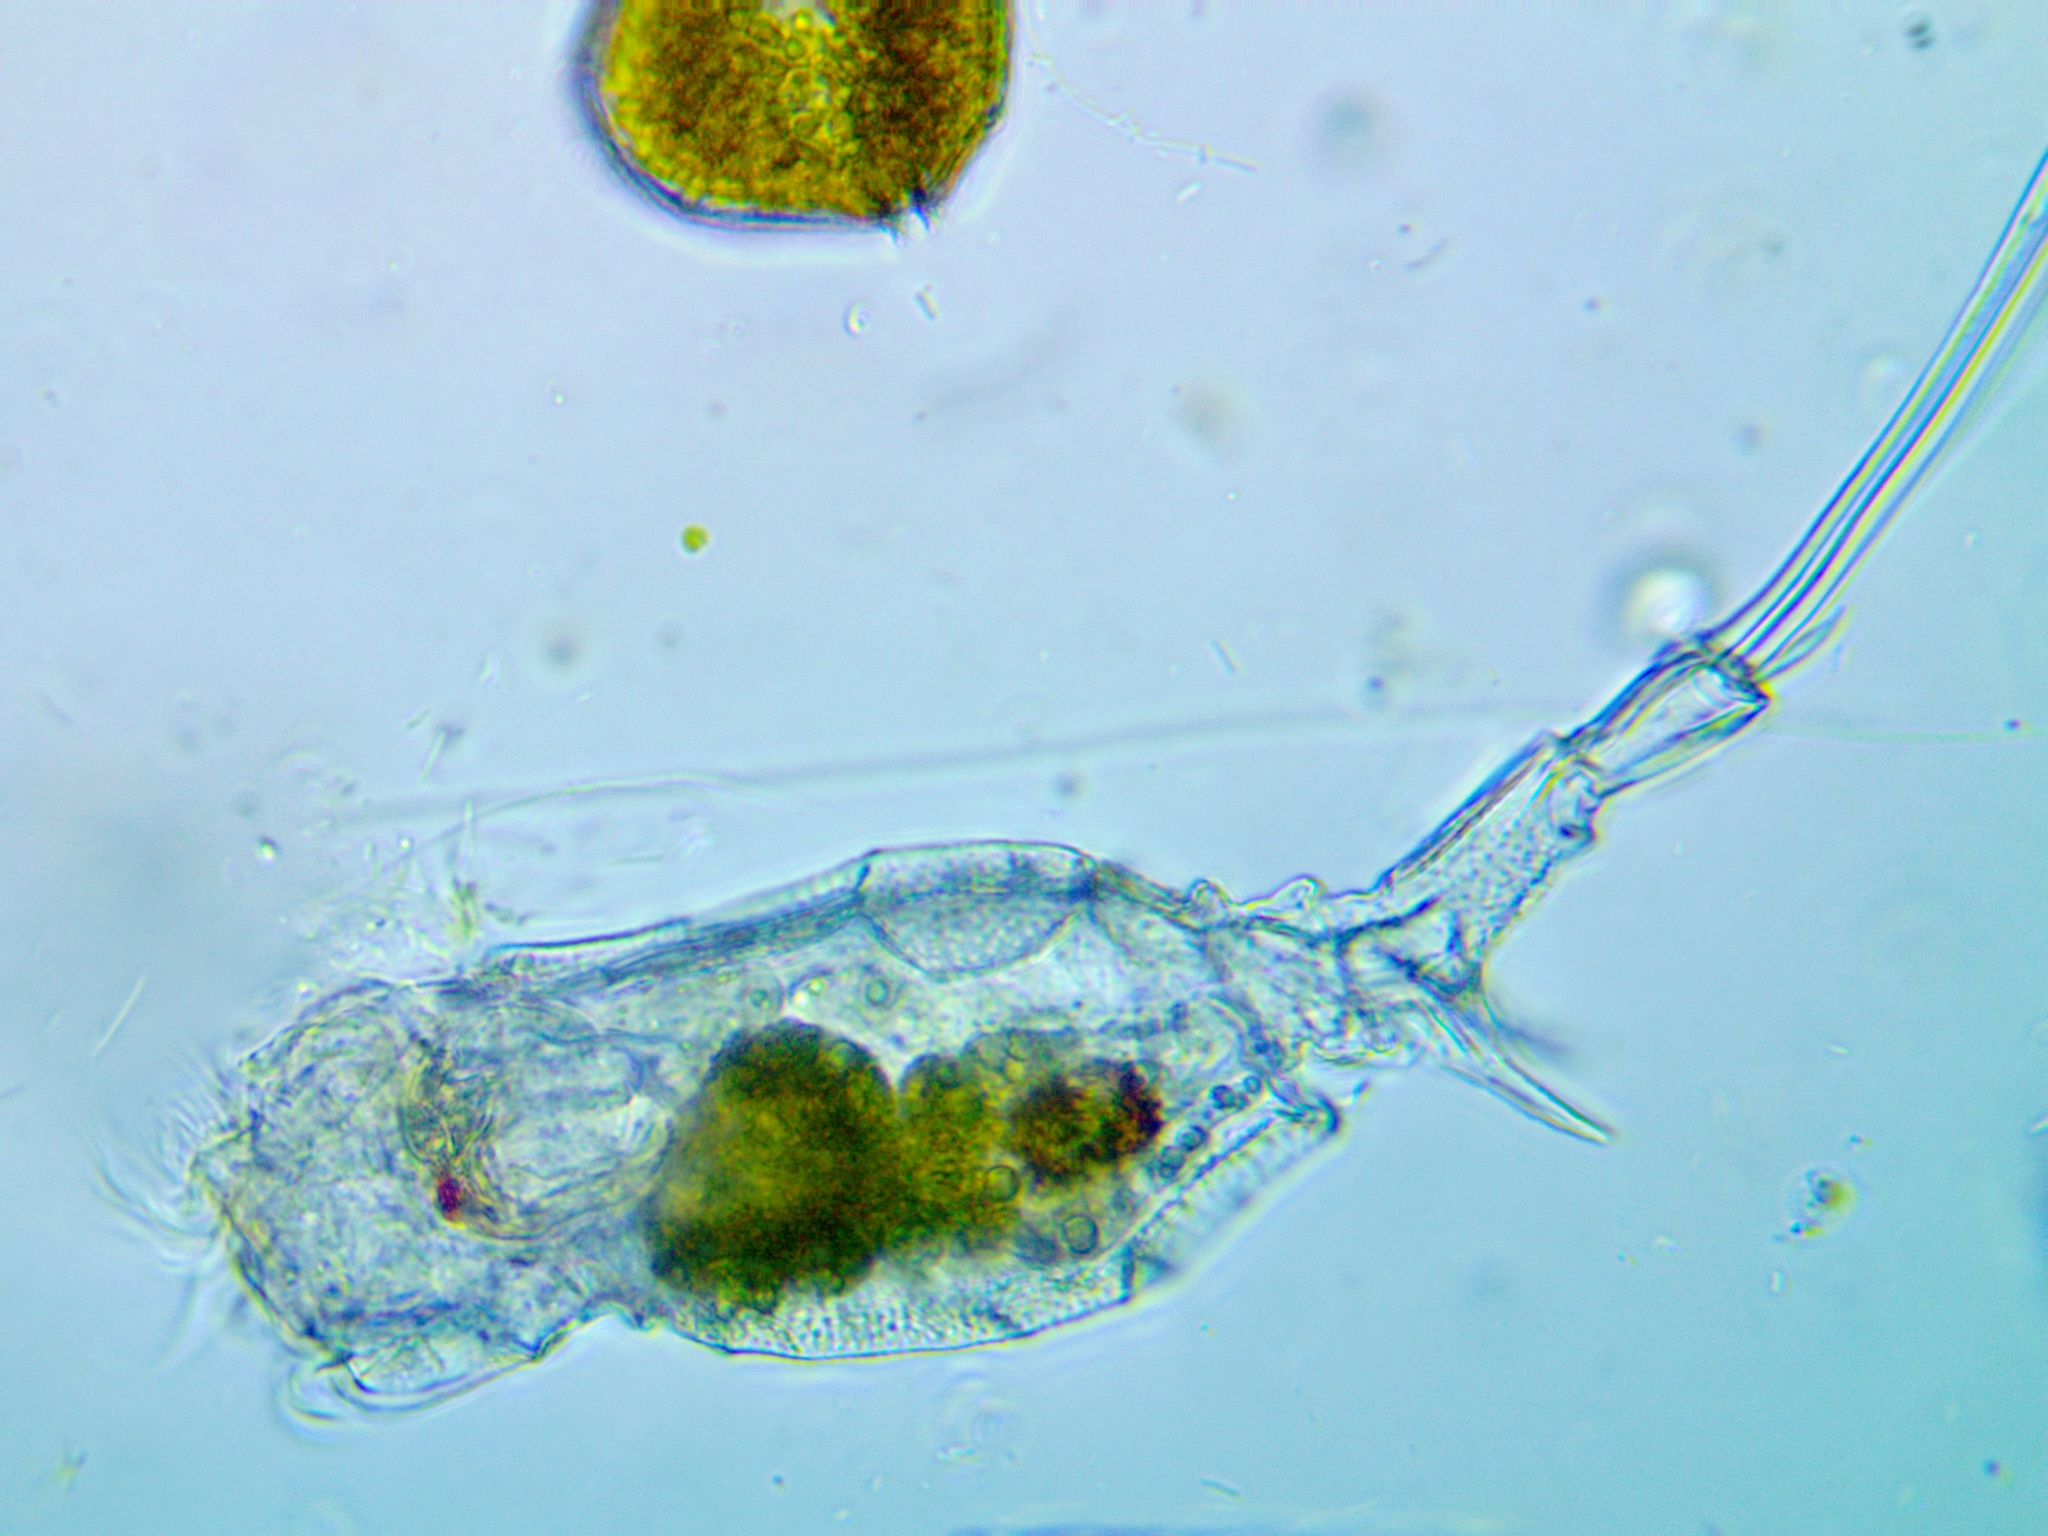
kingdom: Animalia
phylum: Rotifera
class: Eurotatoria
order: Ploima
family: Trichotriidae
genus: Trichotria
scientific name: Trichotria pocillum
